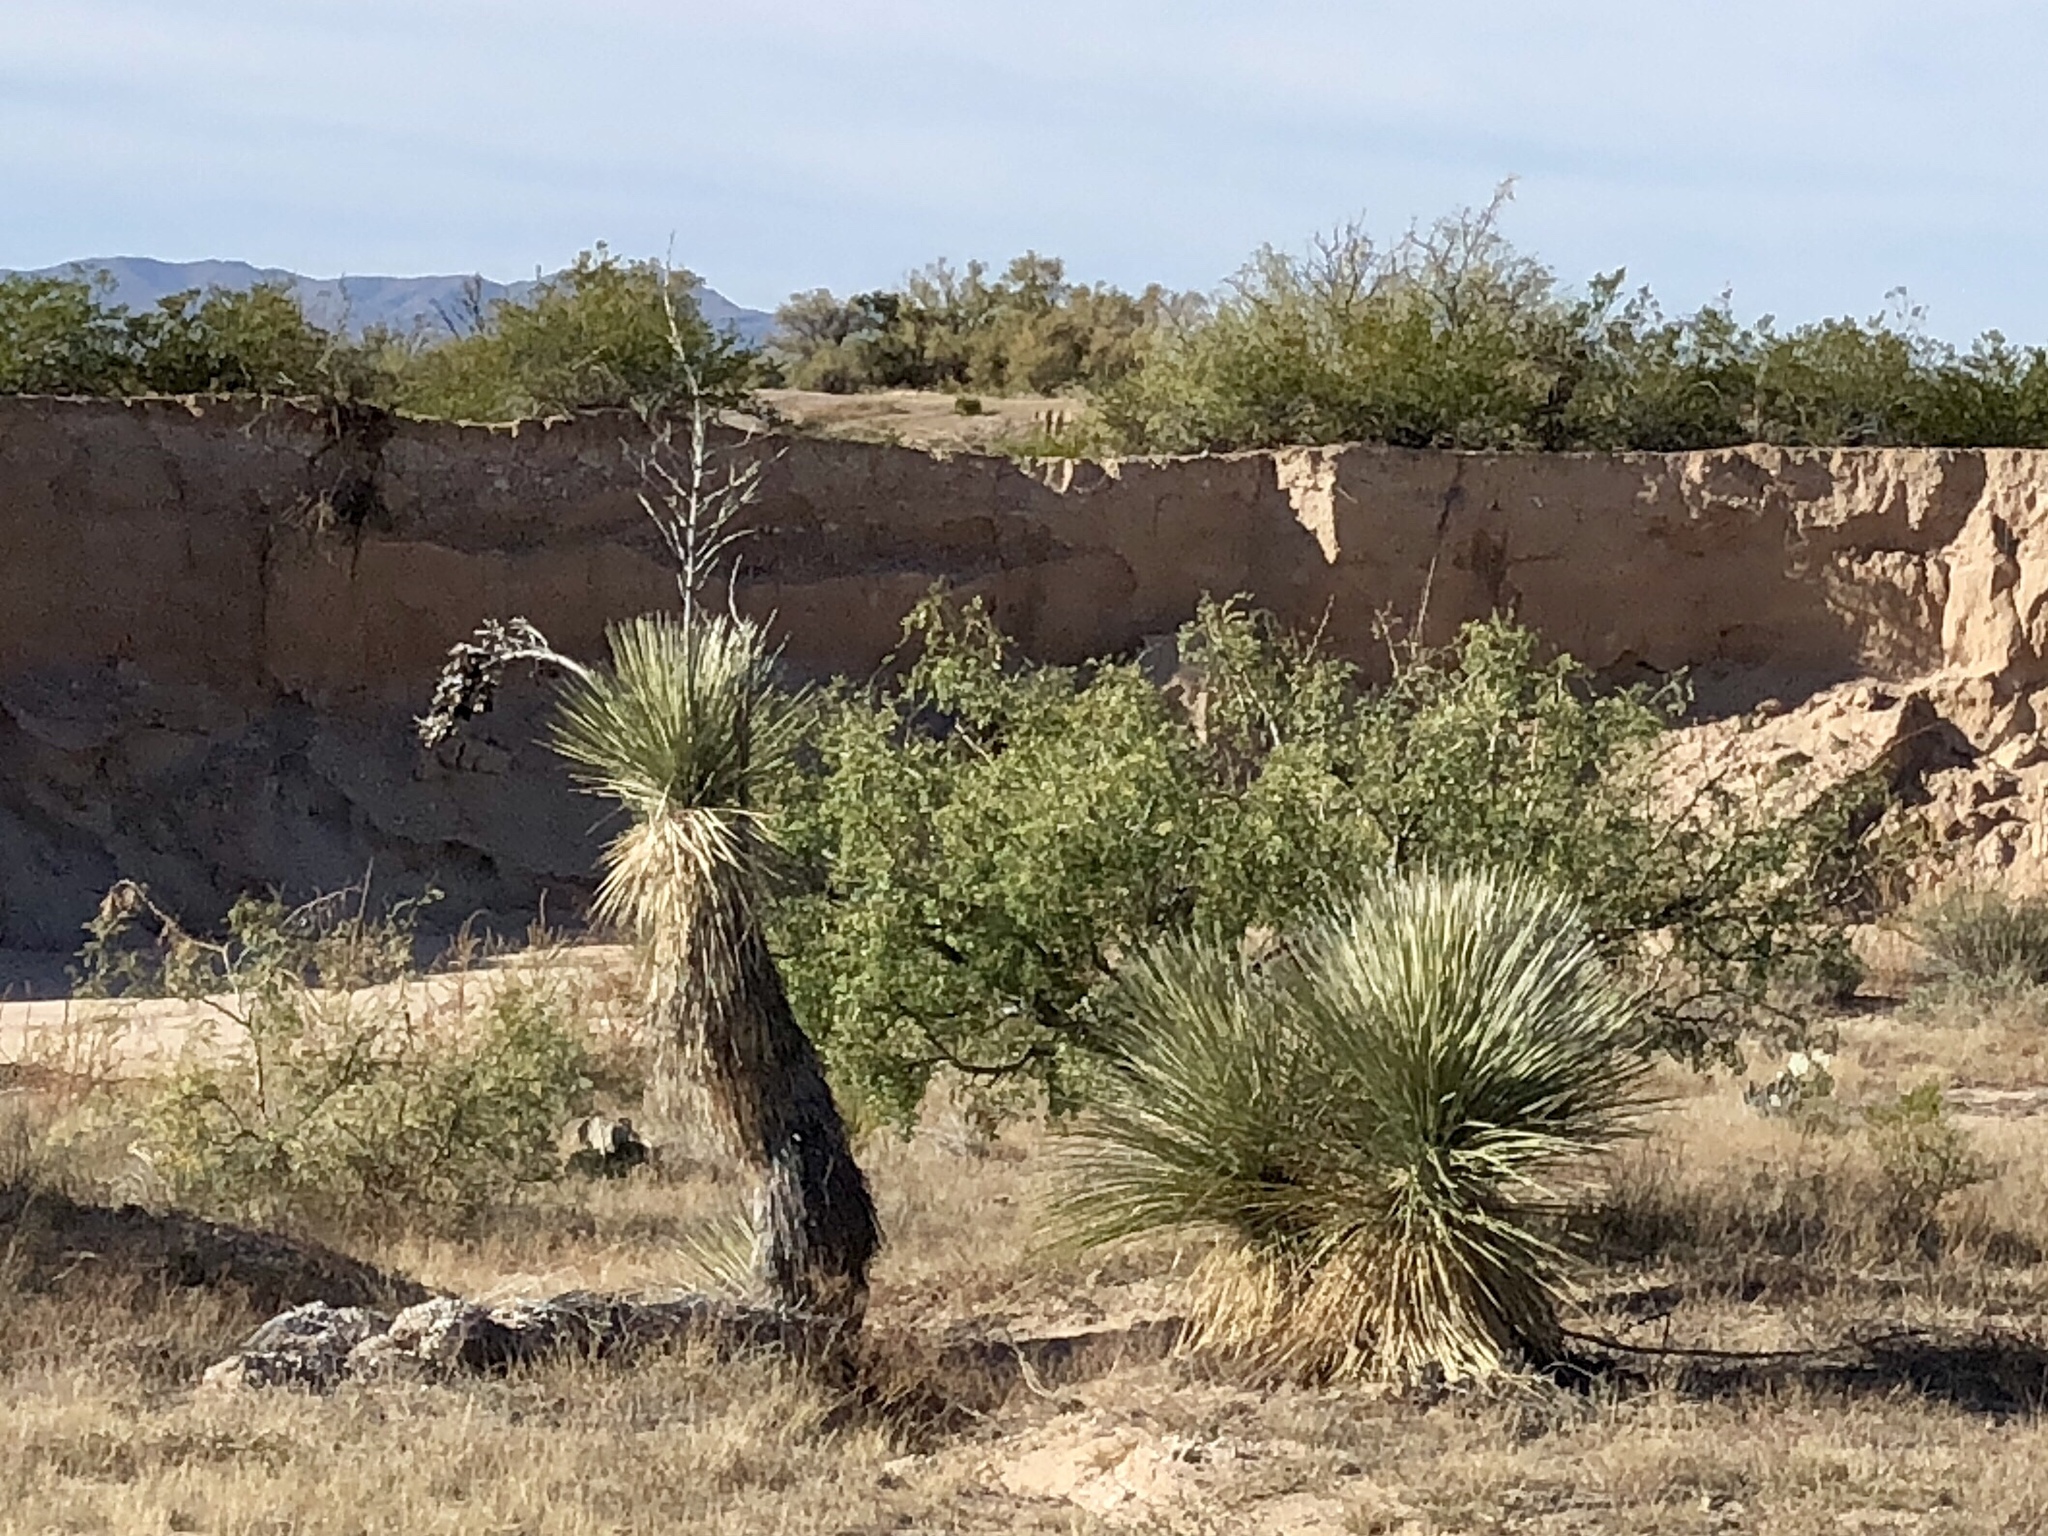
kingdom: Plantae
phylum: Tracheophyta
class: Liliopsida
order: Asparagales
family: Asparagaceae
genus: Yucca
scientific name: Yucca elata
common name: Palmella
